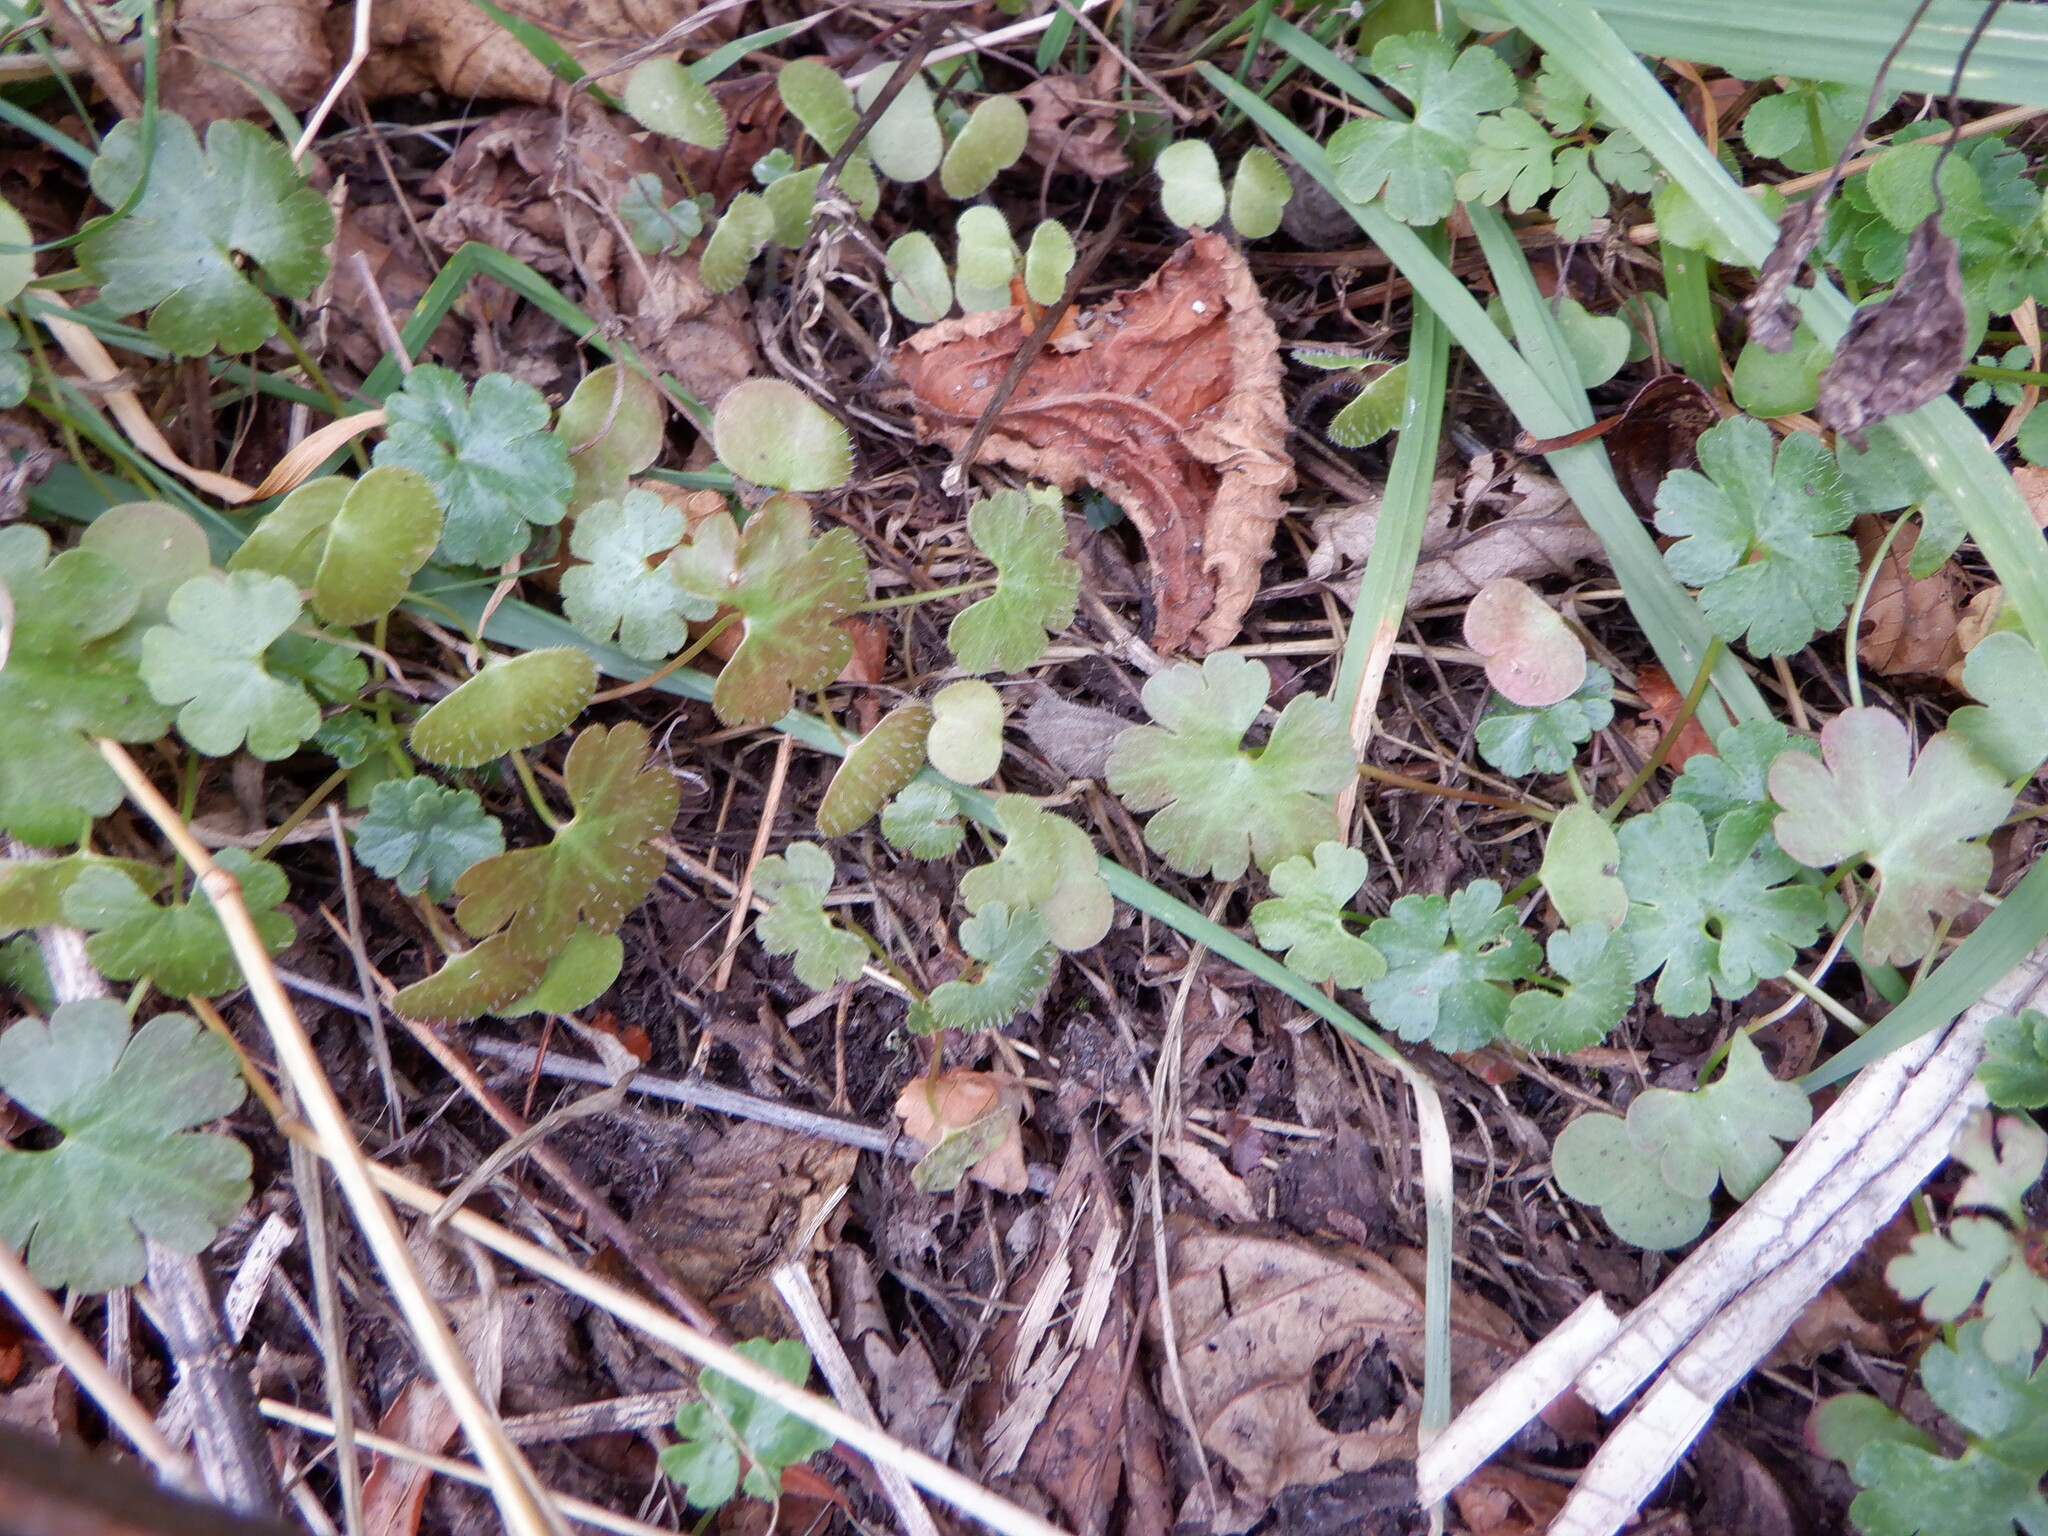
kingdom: Plantae
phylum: Tracheophyta
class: Magnoliopsida
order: Geraniales
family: Geraniaceae
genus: Geranium
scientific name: Geranium lucidum
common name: Shining crane's-bill
